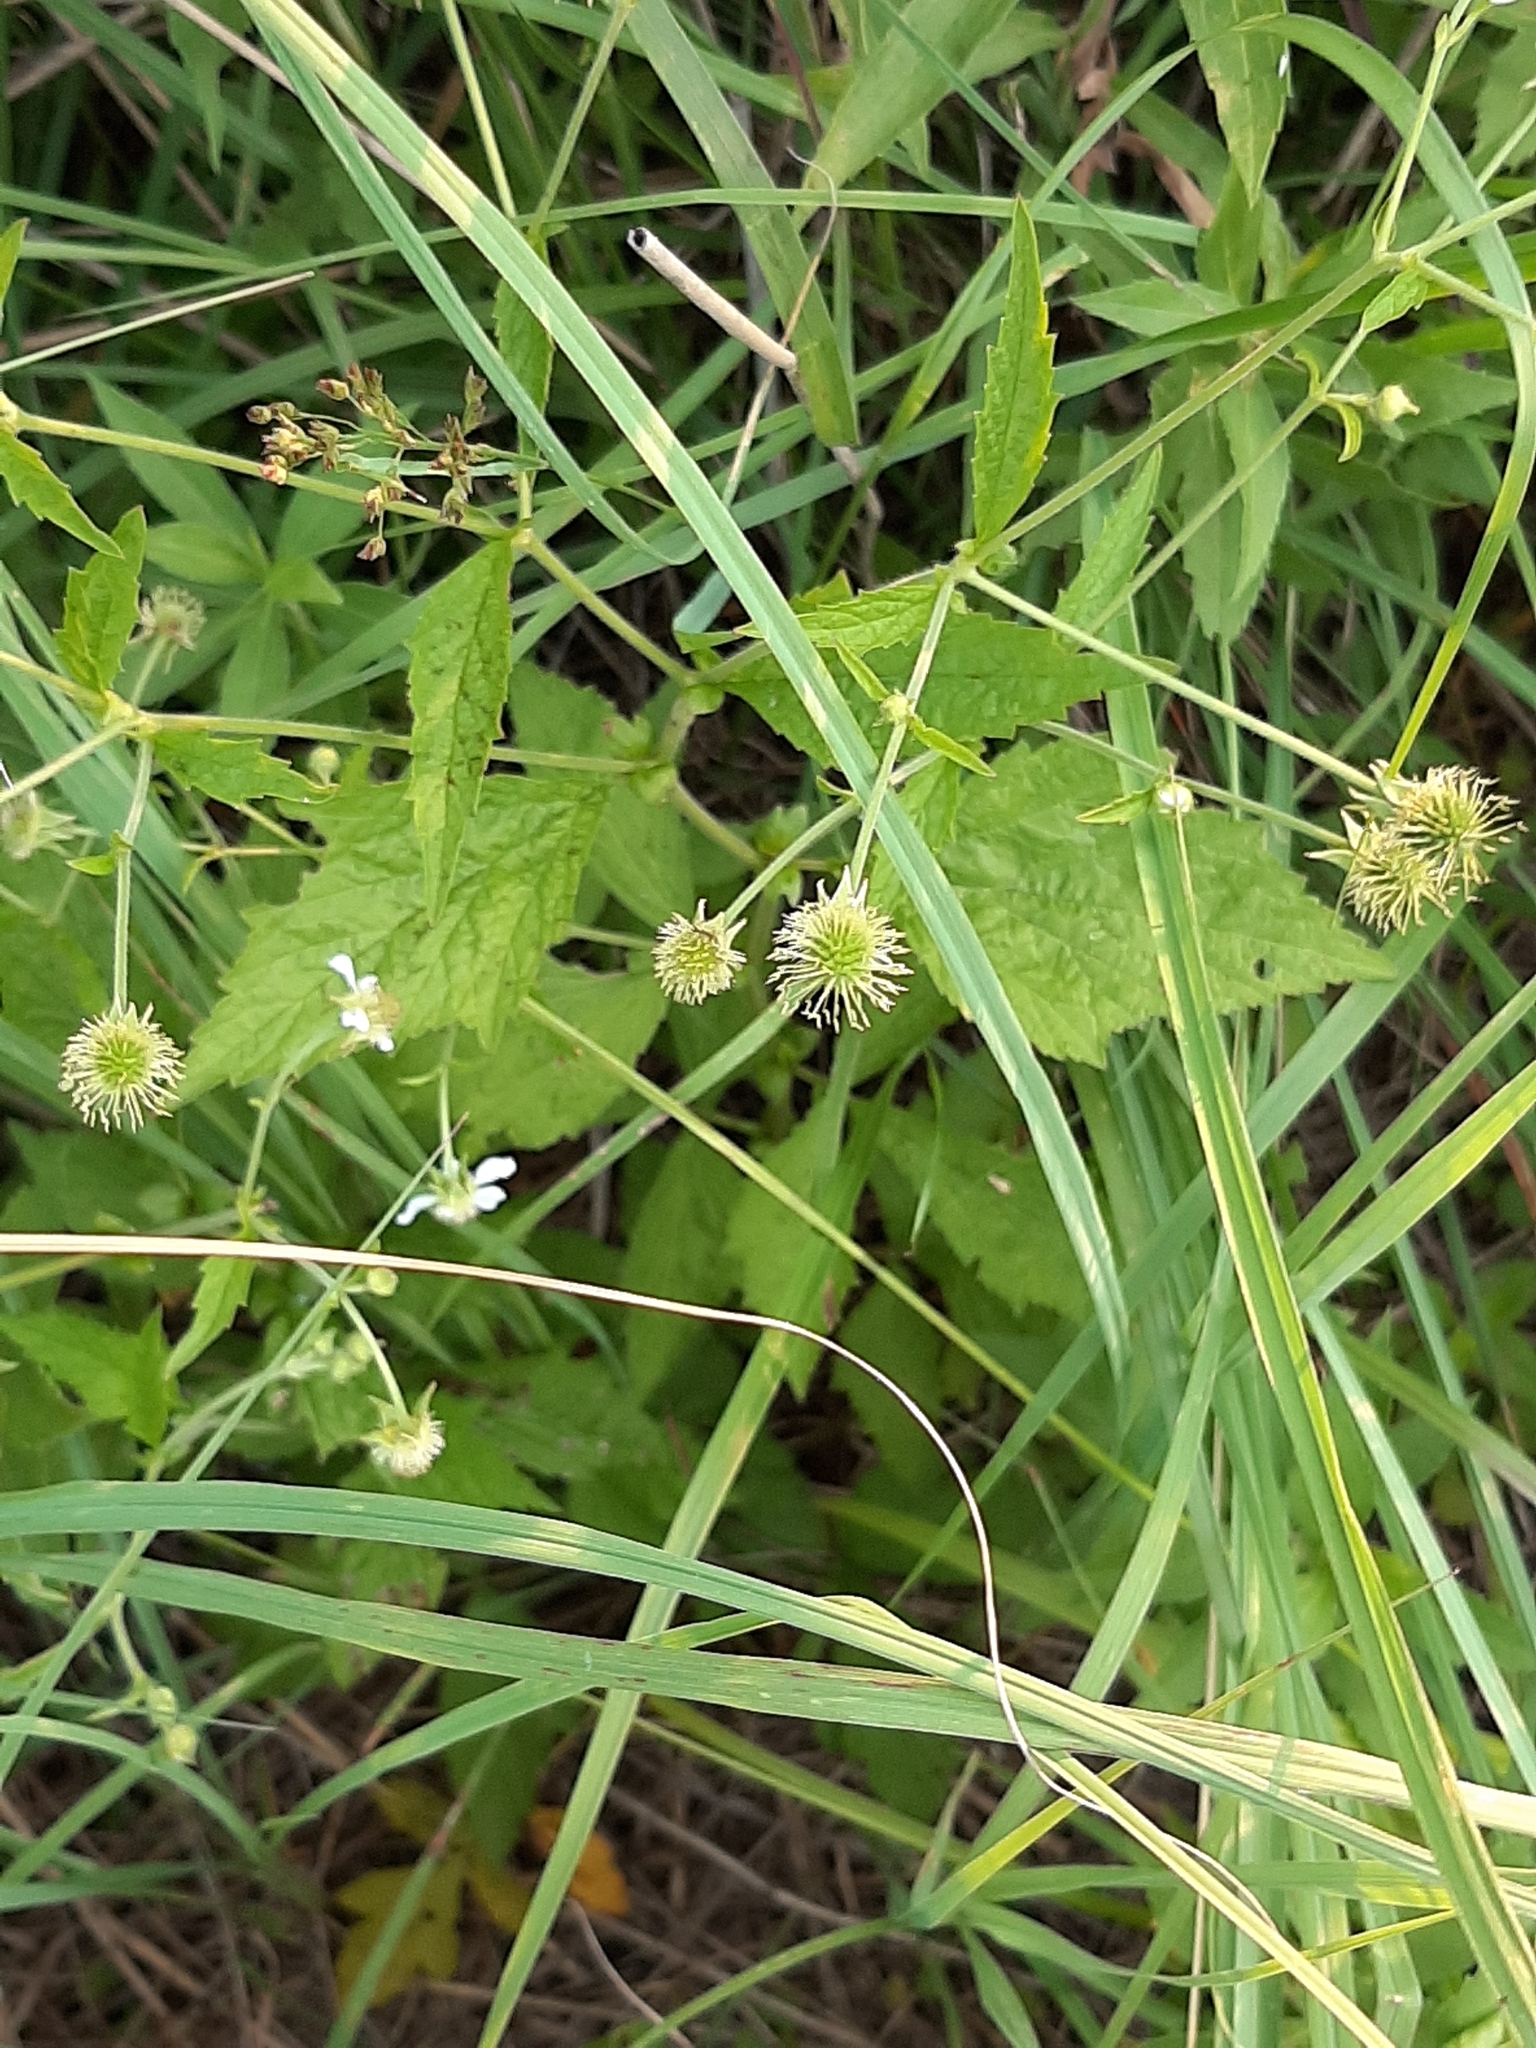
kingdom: Plantae
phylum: Tracheophyta
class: Magnoliopsida
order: Rosales
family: Rosaceae
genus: Geum
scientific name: Geum canadense
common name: White avens
